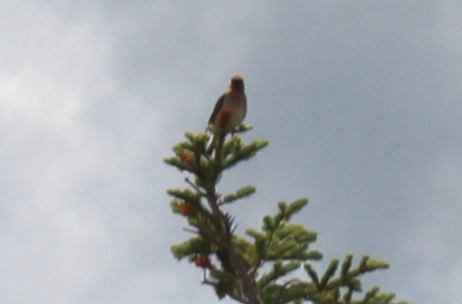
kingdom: Animalia
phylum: Chordata
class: Aves
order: Passeriformes
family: Bombycillidae
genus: Bombycilla
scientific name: Bombycilla cedrorum
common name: Cedar waxwing
